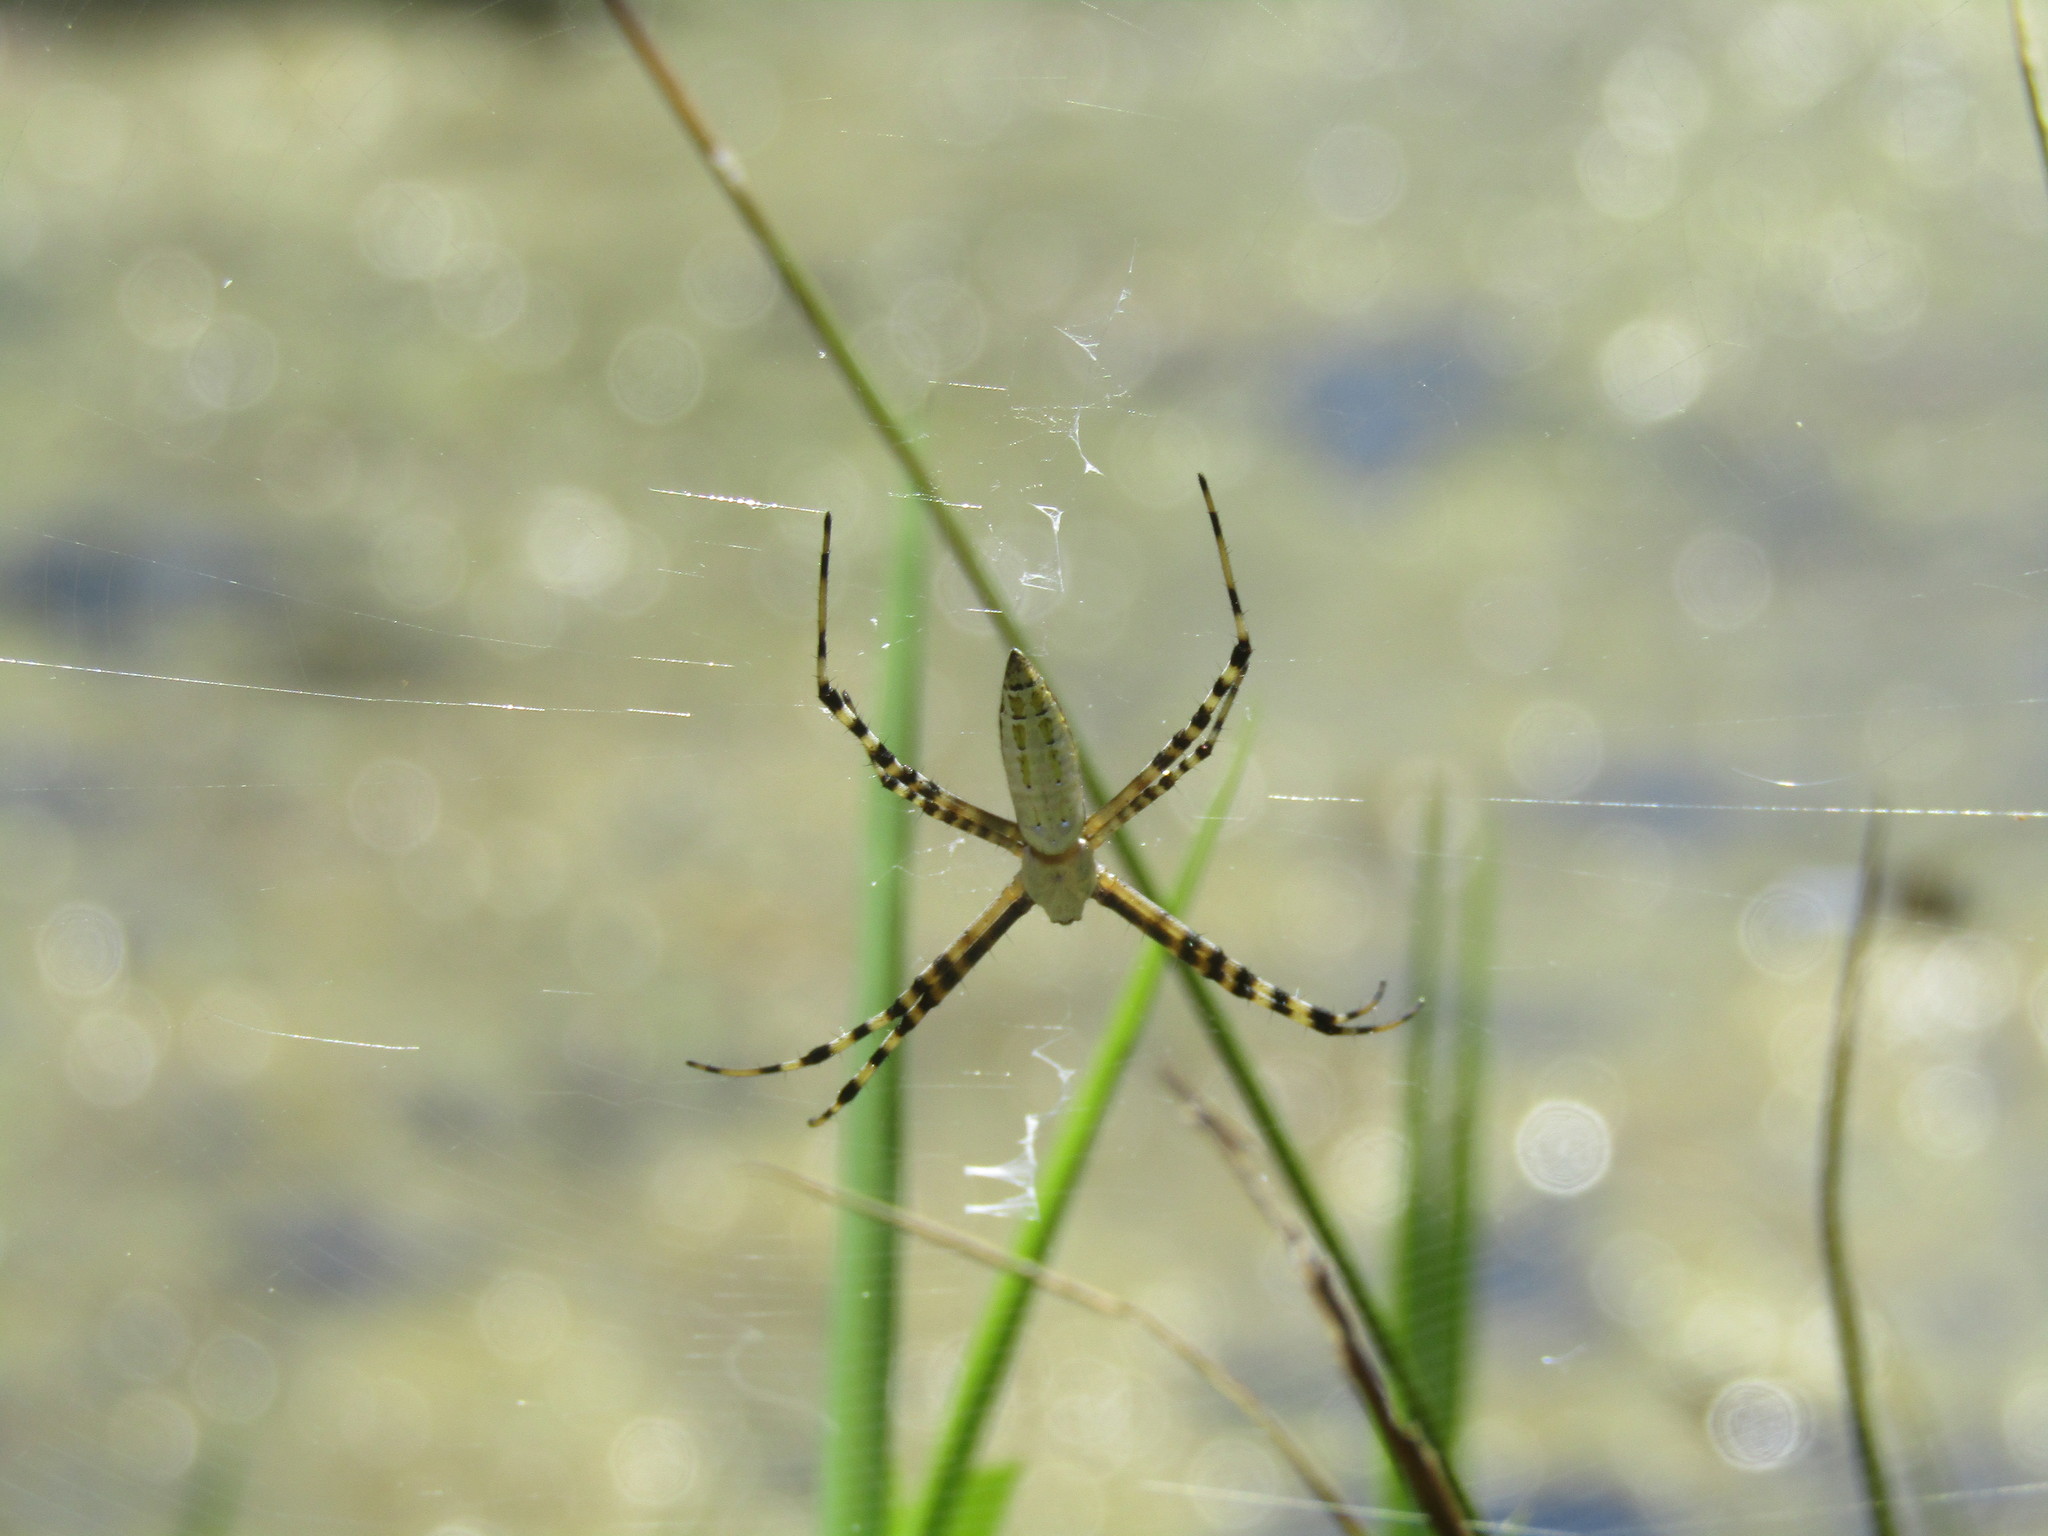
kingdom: Animalia
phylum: Arthropoda
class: Arachnida
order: Araneae
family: Araneidae
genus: Argiope
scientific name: Argiope trifasciata
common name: Banded garden spider
